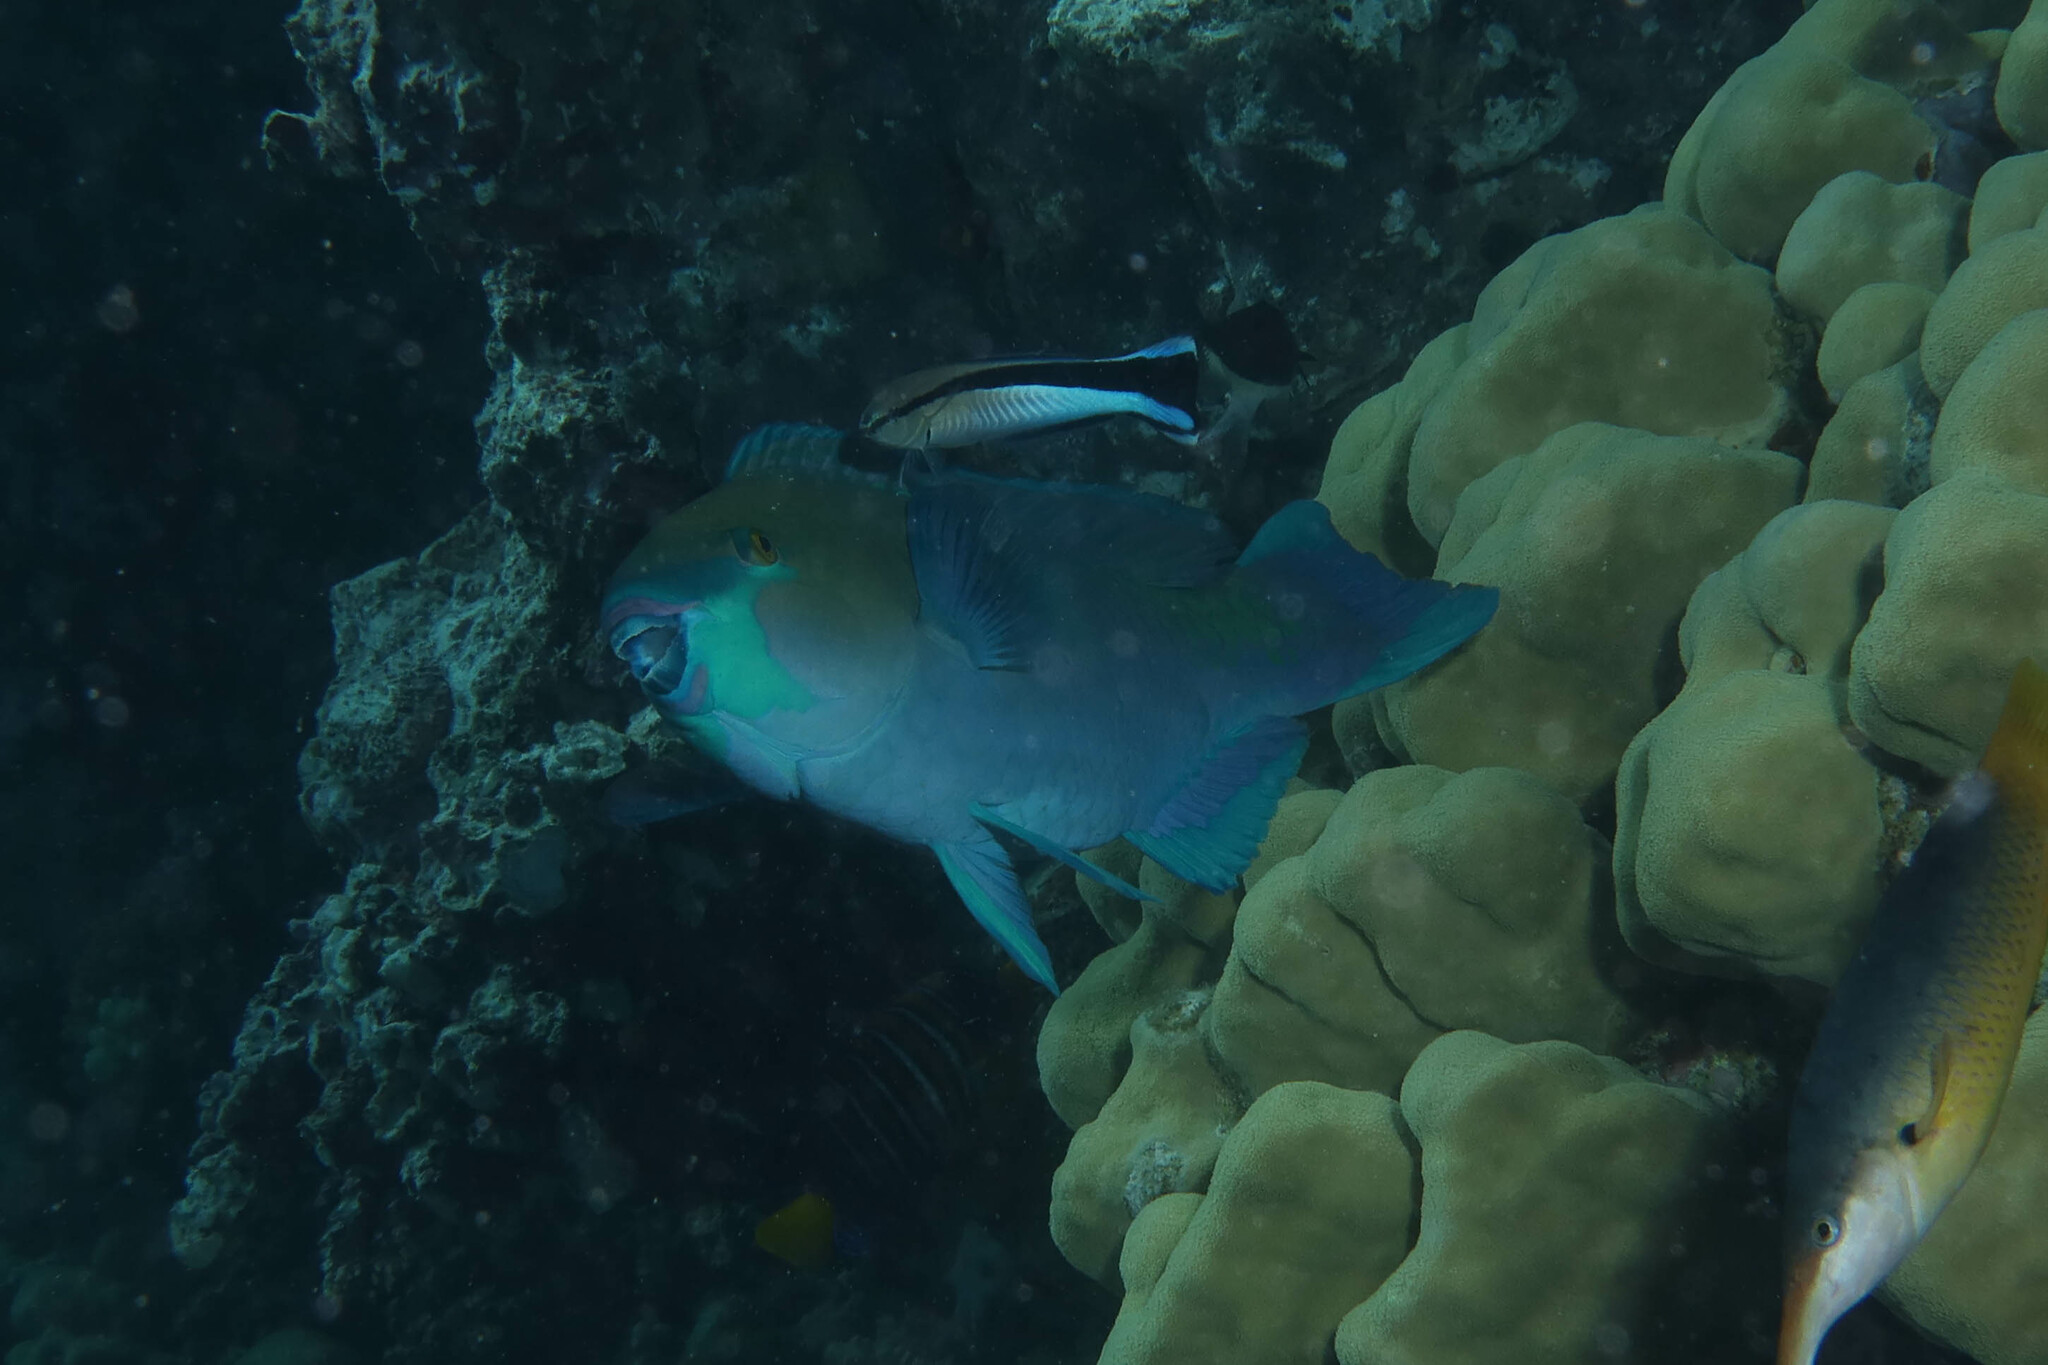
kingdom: Animalia
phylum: Chordata
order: Perciformes
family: Scaridae
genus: Scarus
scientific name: Scarus ferrugineus
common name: Rusty parrotfish
